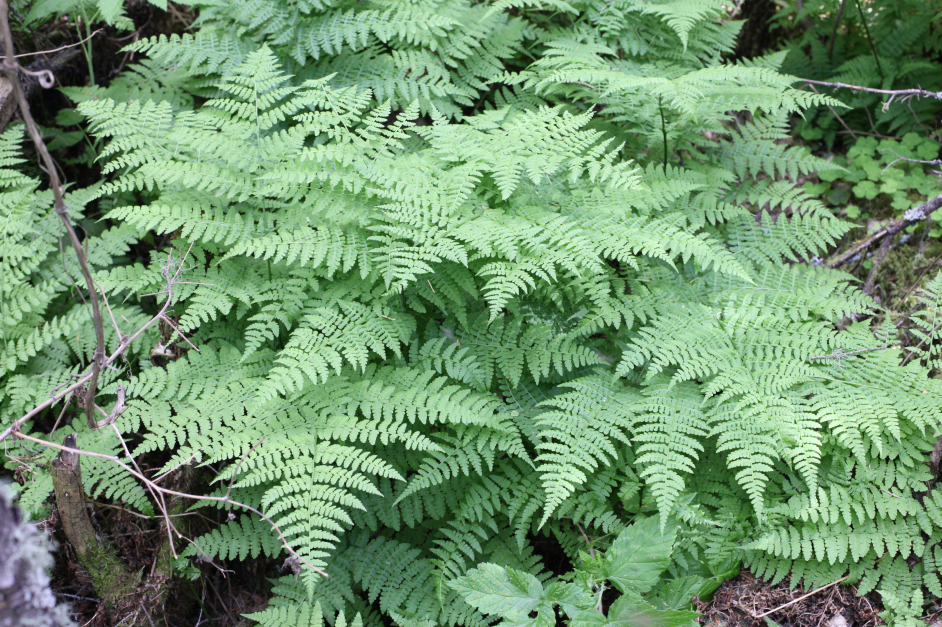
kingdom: Plantae
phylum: Tracheophyta
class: Polypodiopsida
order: Polypodiales
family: Athyriaceae
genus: Diplazium
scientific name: Diplazium sibiricum
